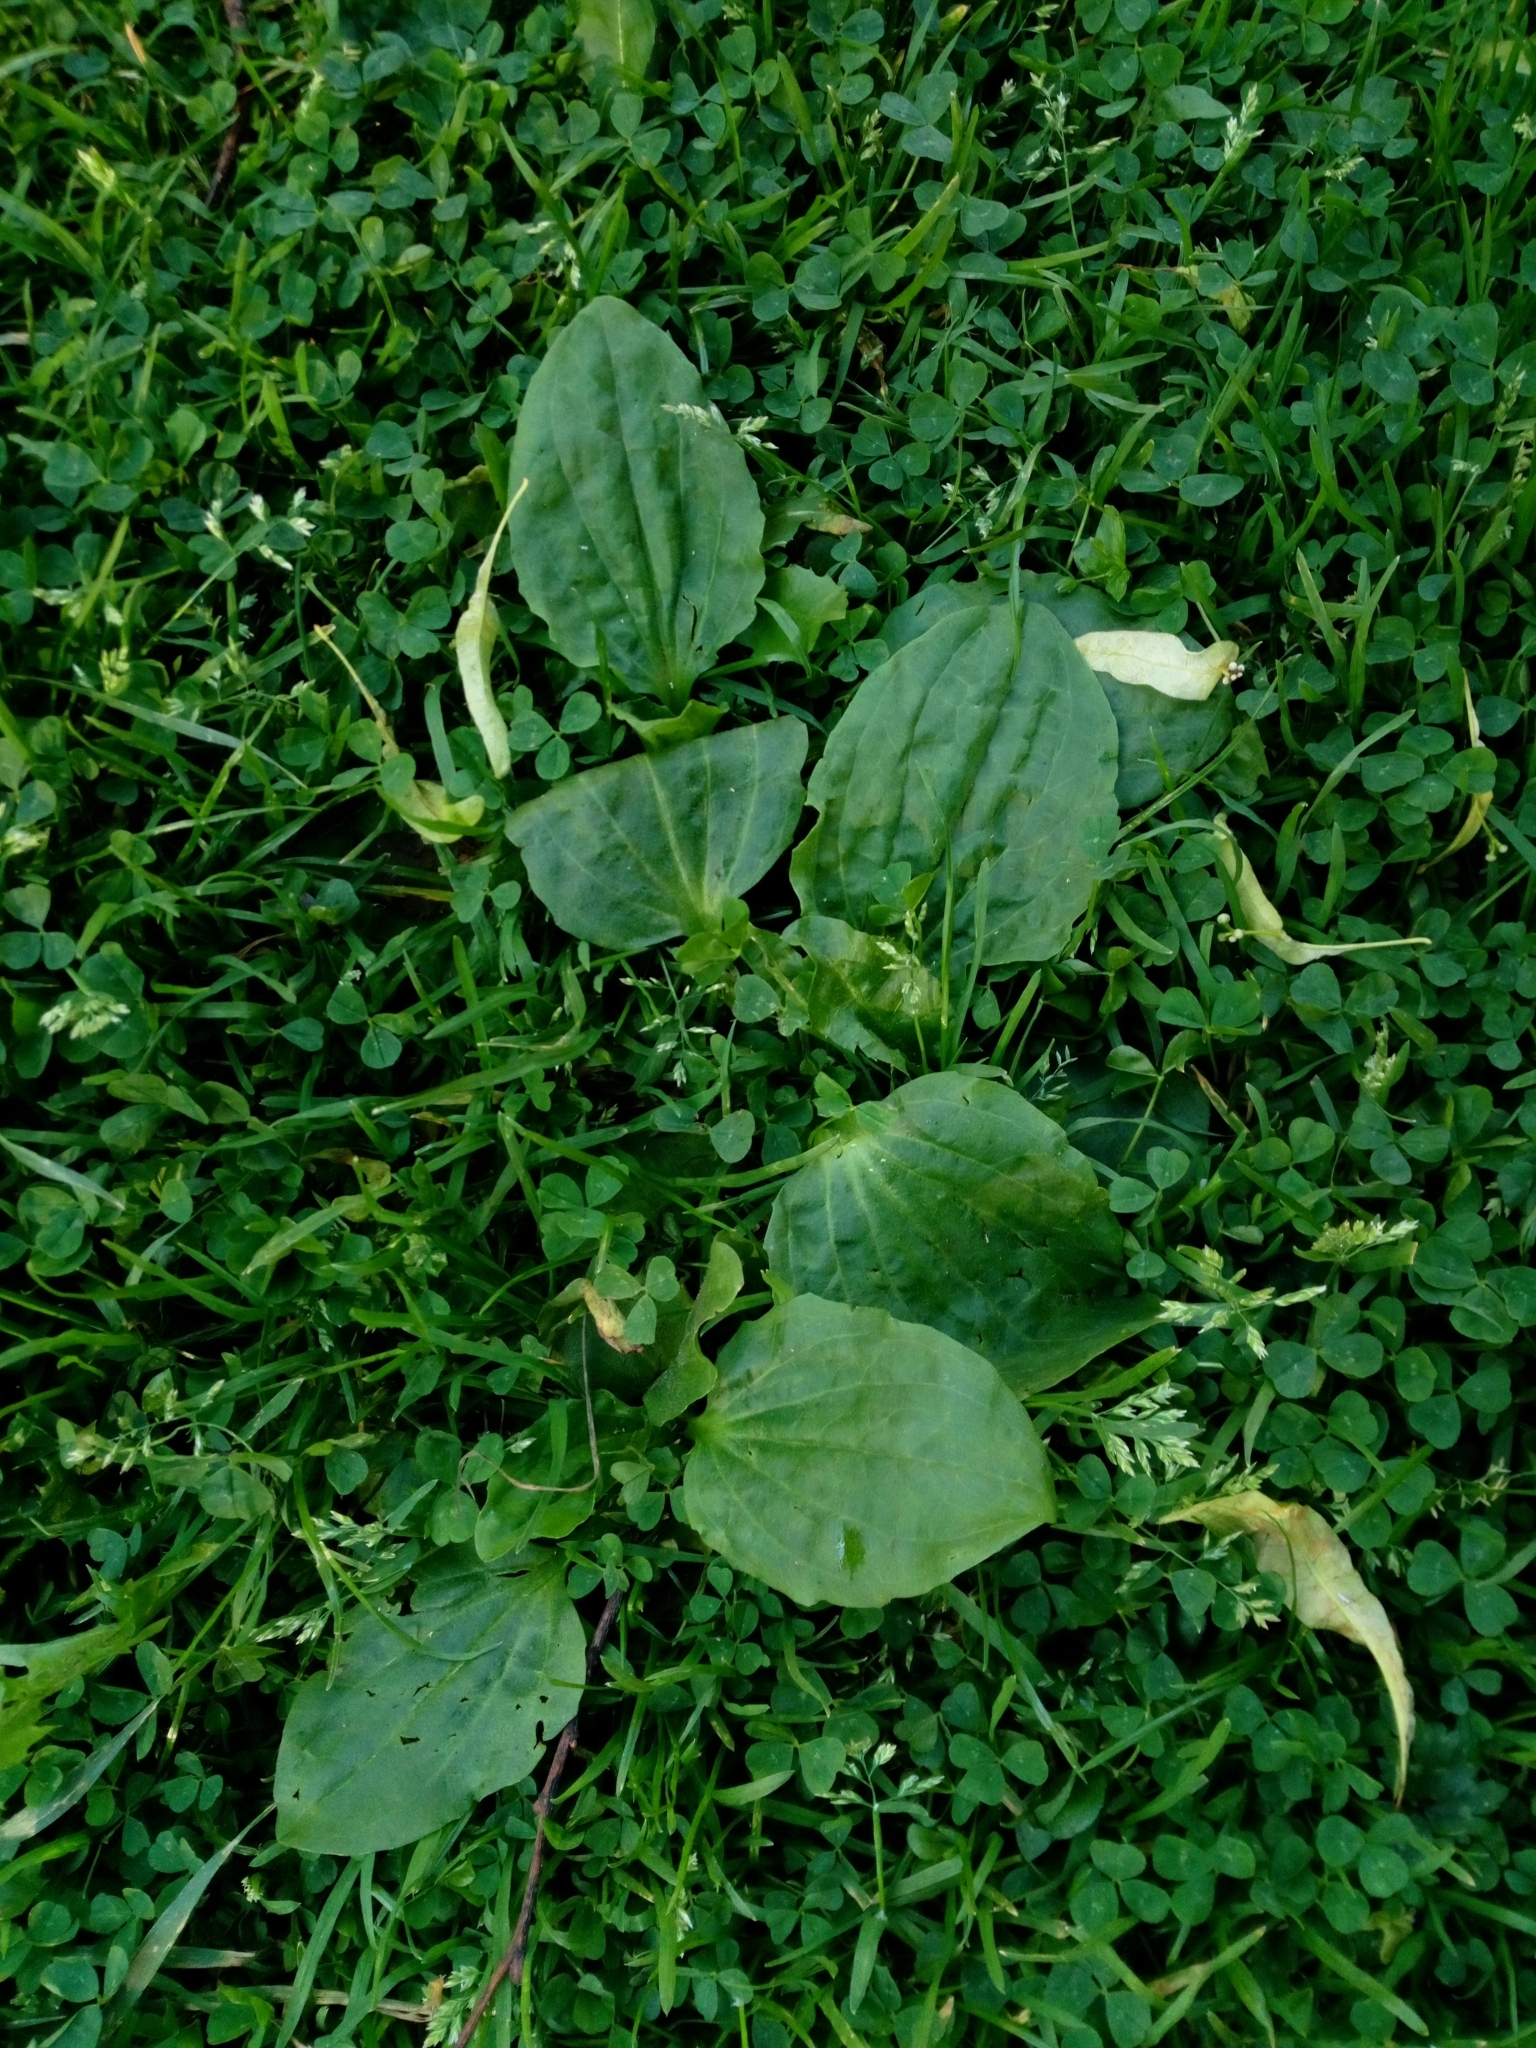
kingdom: Plantae
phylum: Tracheophyta
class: Magnoliopsida
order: Lamiales
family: Plantaginaceae
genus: Plantago
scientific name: Plantago major
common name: Common plantain
